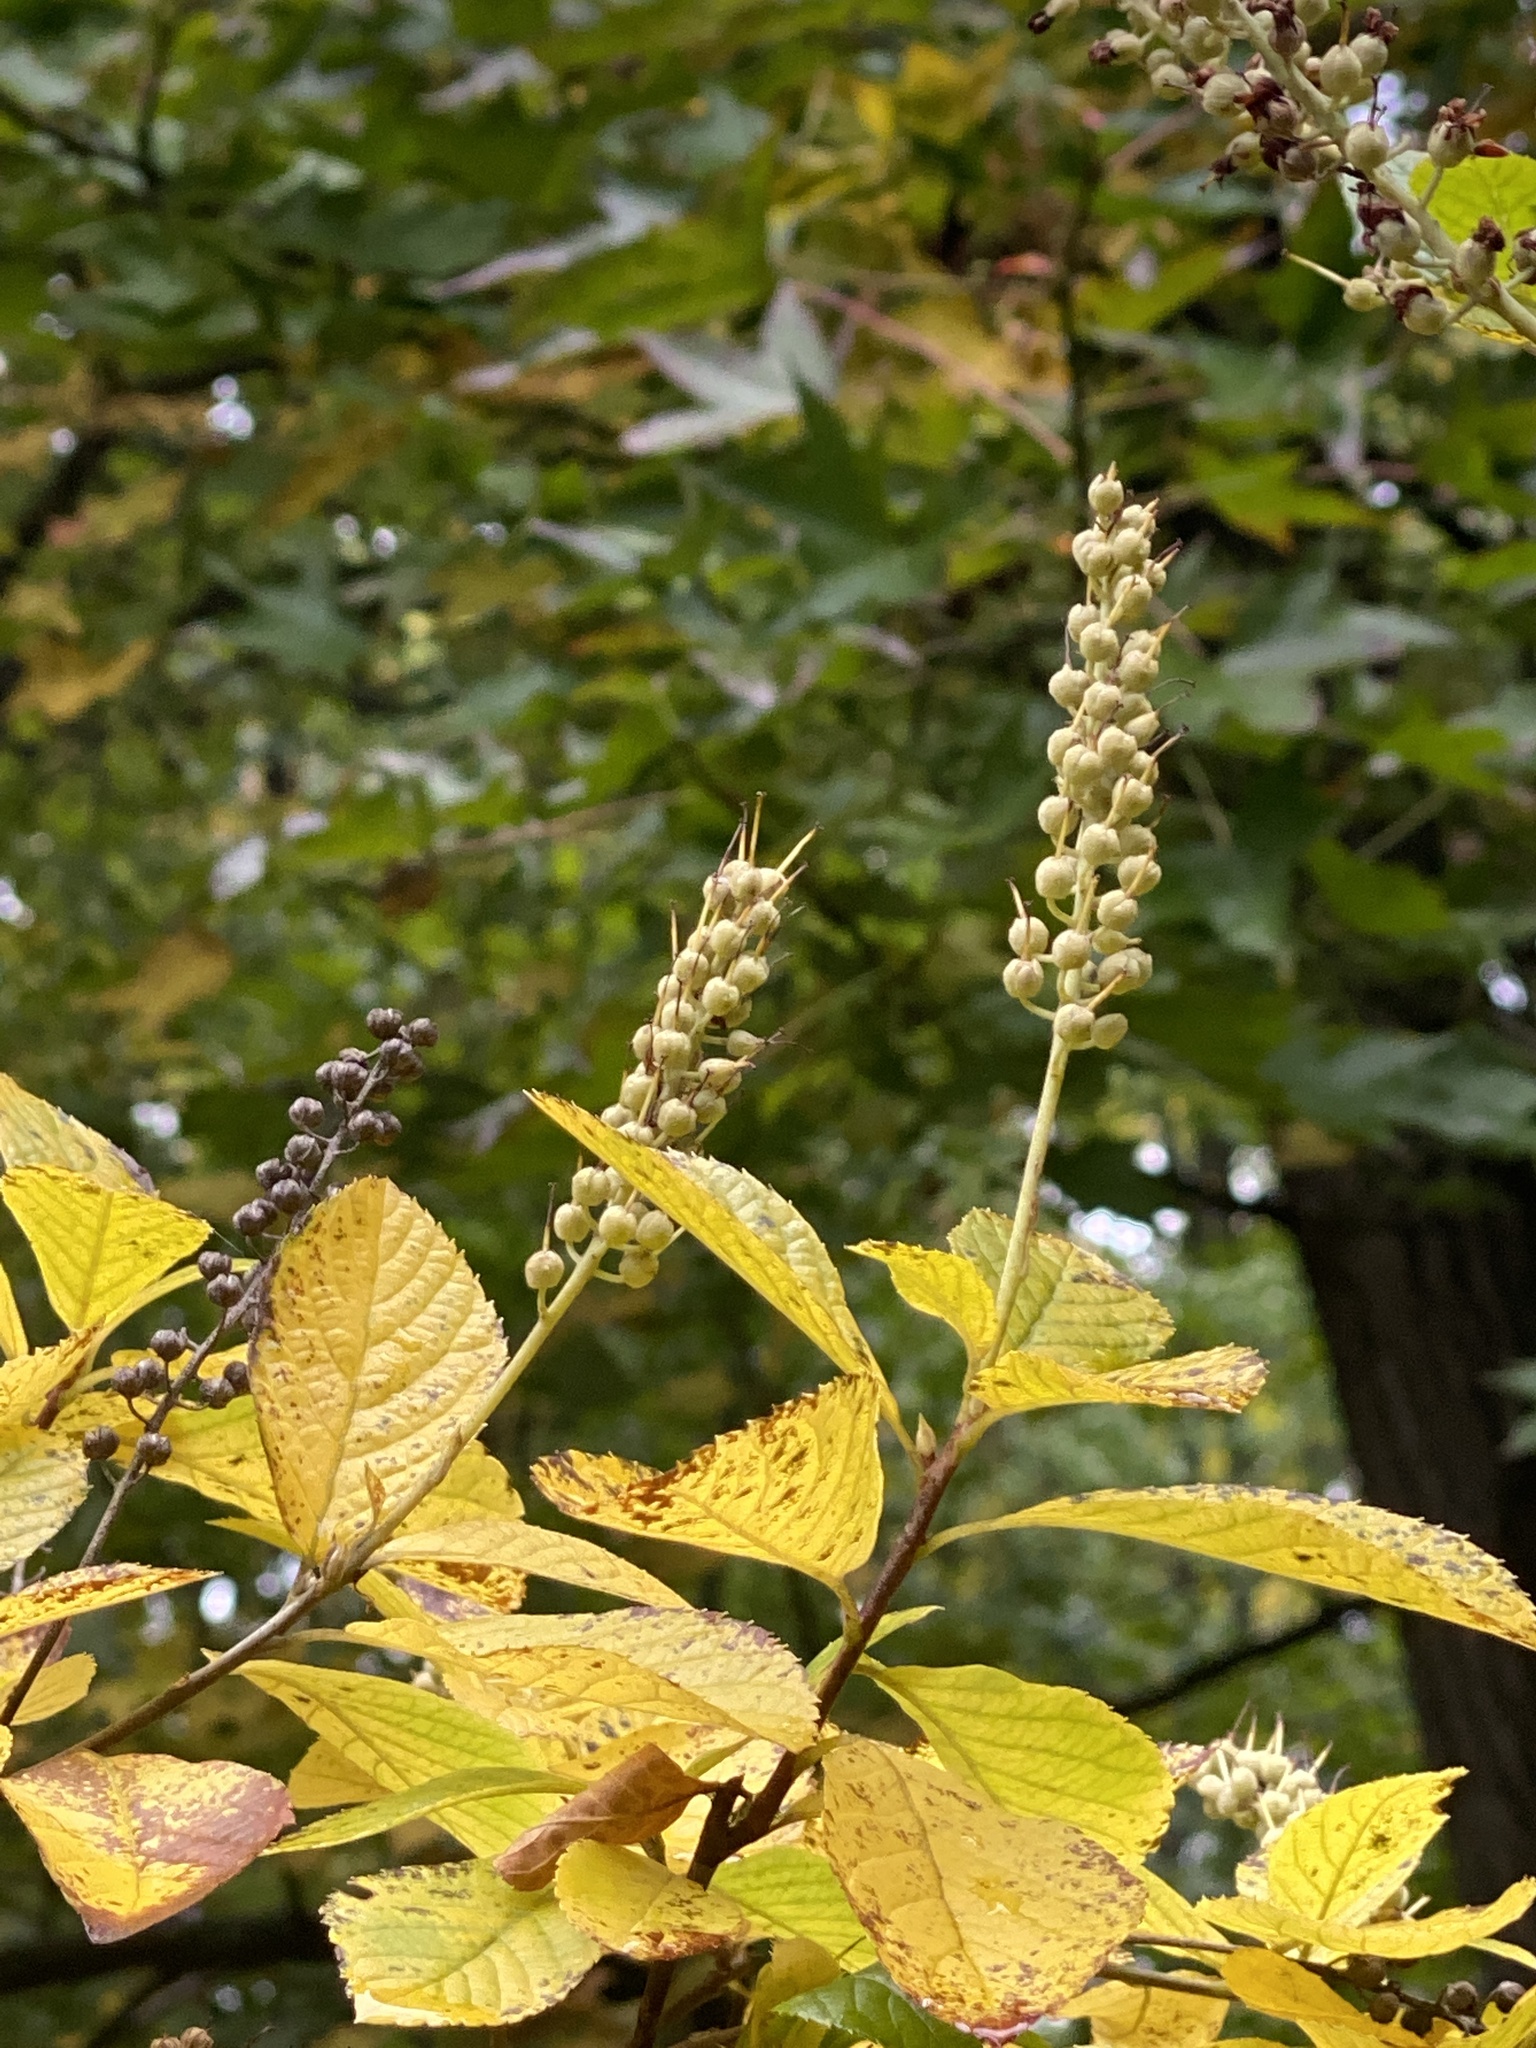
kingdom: Plantae
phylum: Tracheophyta
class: Magnoliopsida
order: Ericales
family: Clethraceae
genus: Clethra
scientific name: Clethra alnifolia
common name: Sweet pepperbush
